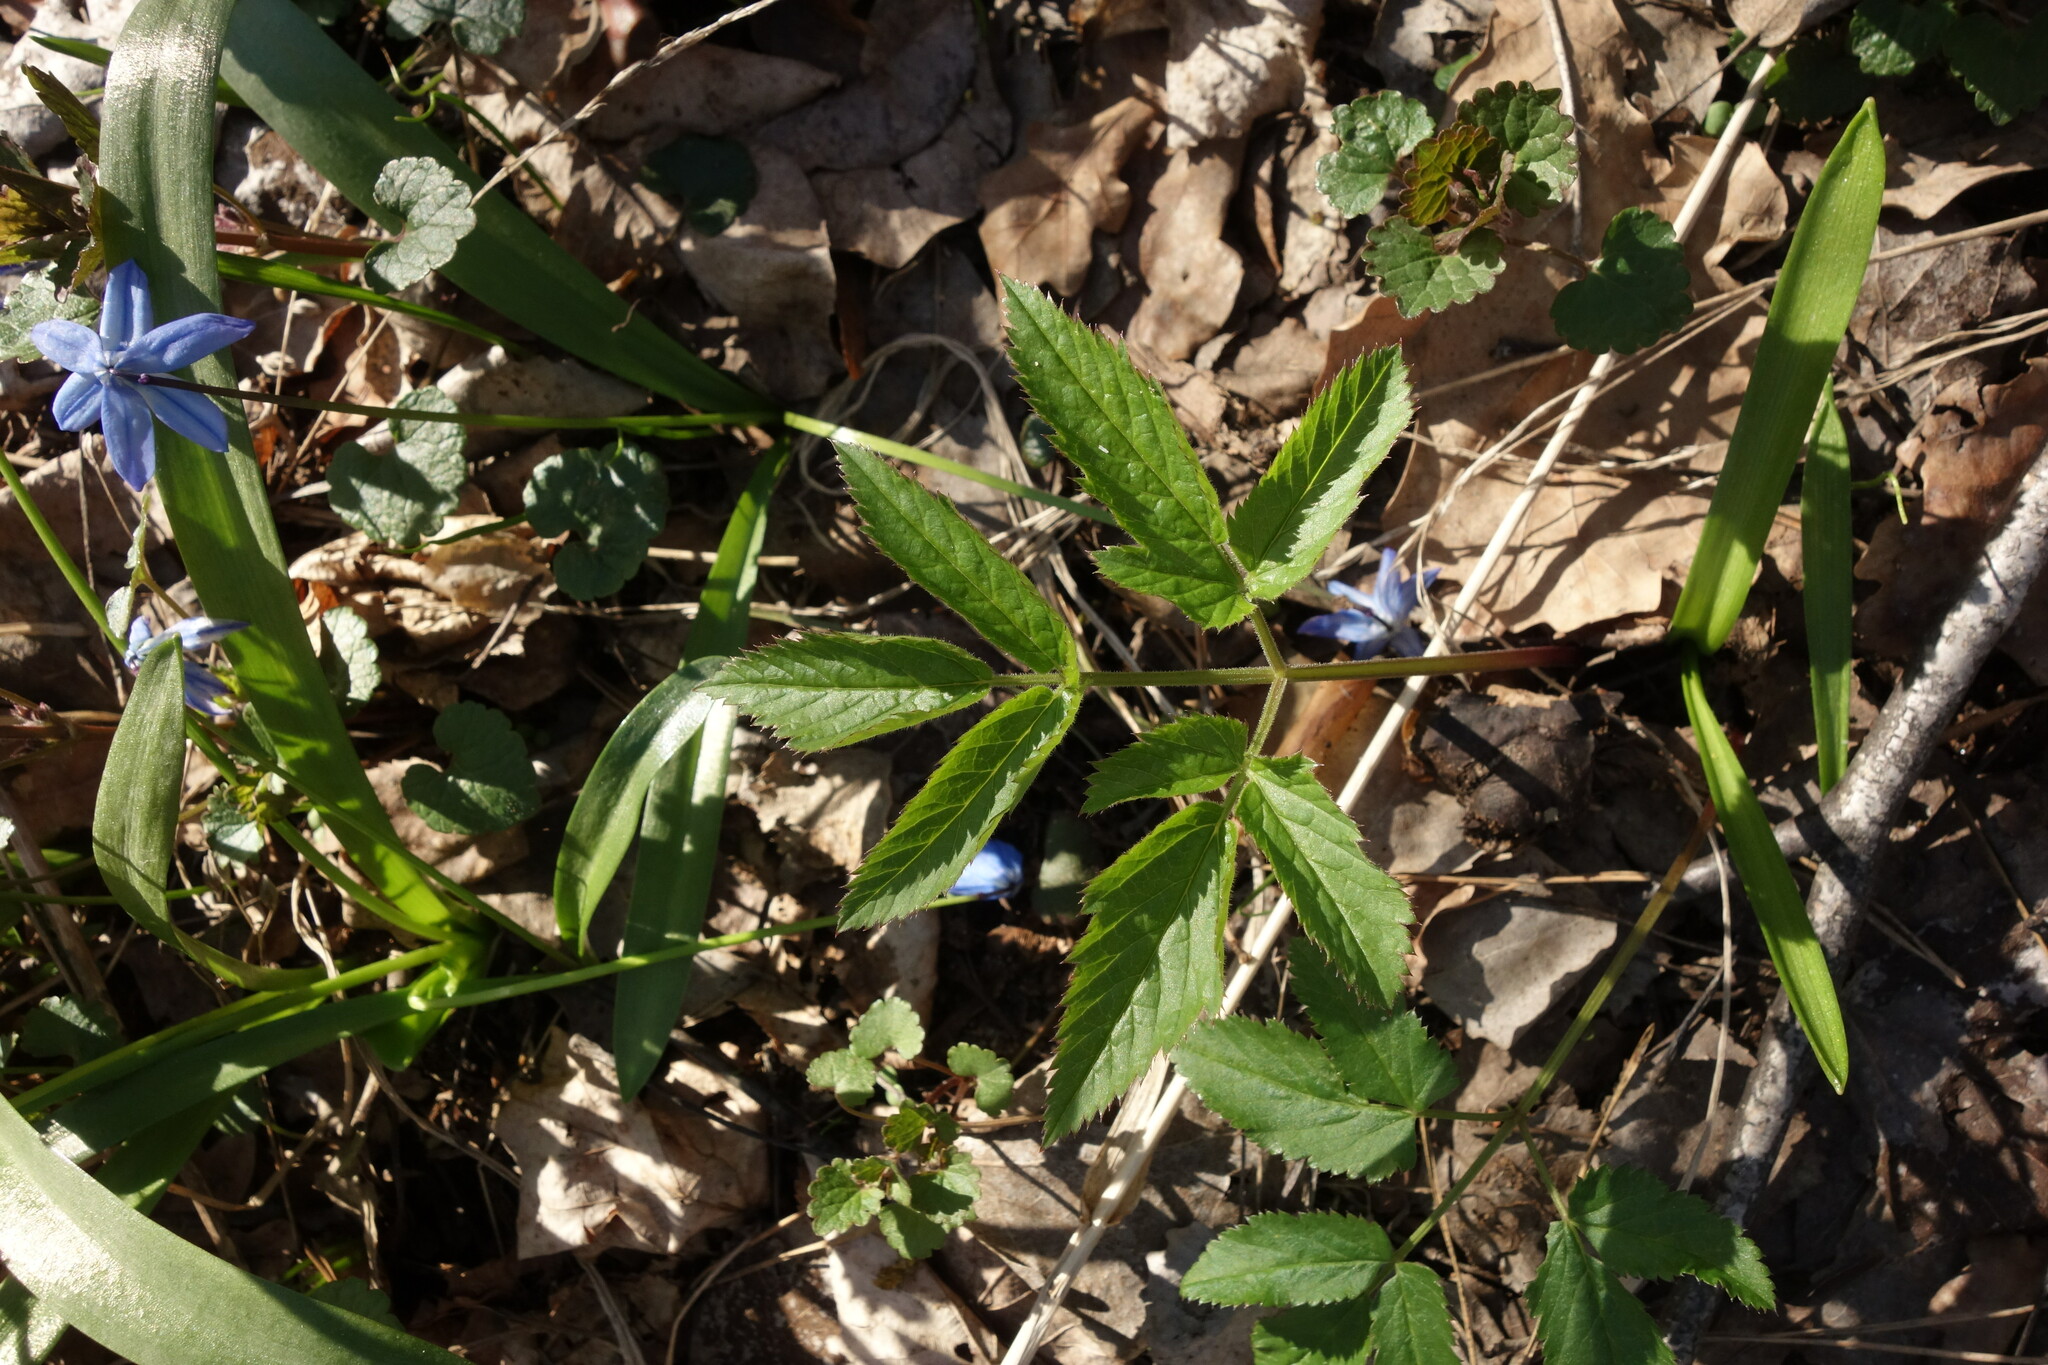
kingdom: Plantae
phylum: Tracheophyta
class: Magnoliopsida
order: Apiales
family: Apiaceae
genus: Aegopodium
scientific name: Aegopodium podagraria
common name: Ground-elder
